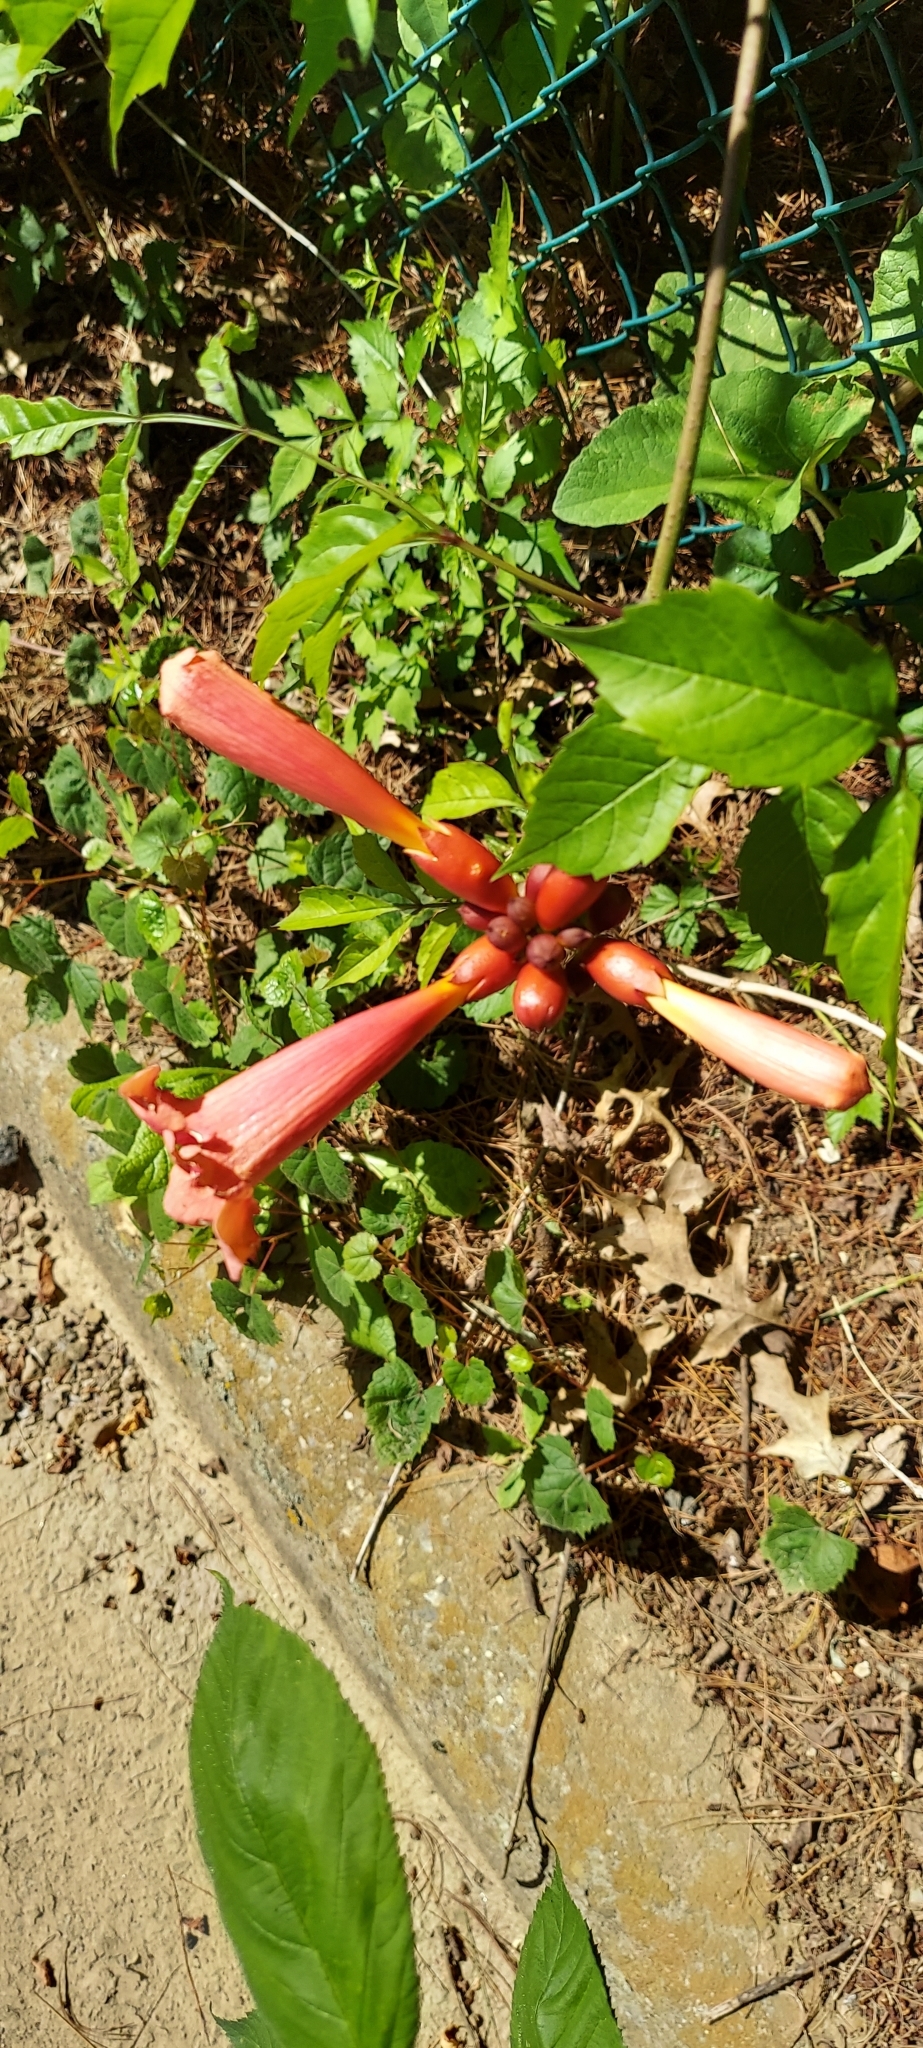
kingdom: Plantae
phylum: Tracheophyta
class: Magnoliopsida
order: Lamiales
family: Bignoniaceae
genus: Campsis
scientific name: Campsis radicans
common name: Trumpet-creeper
